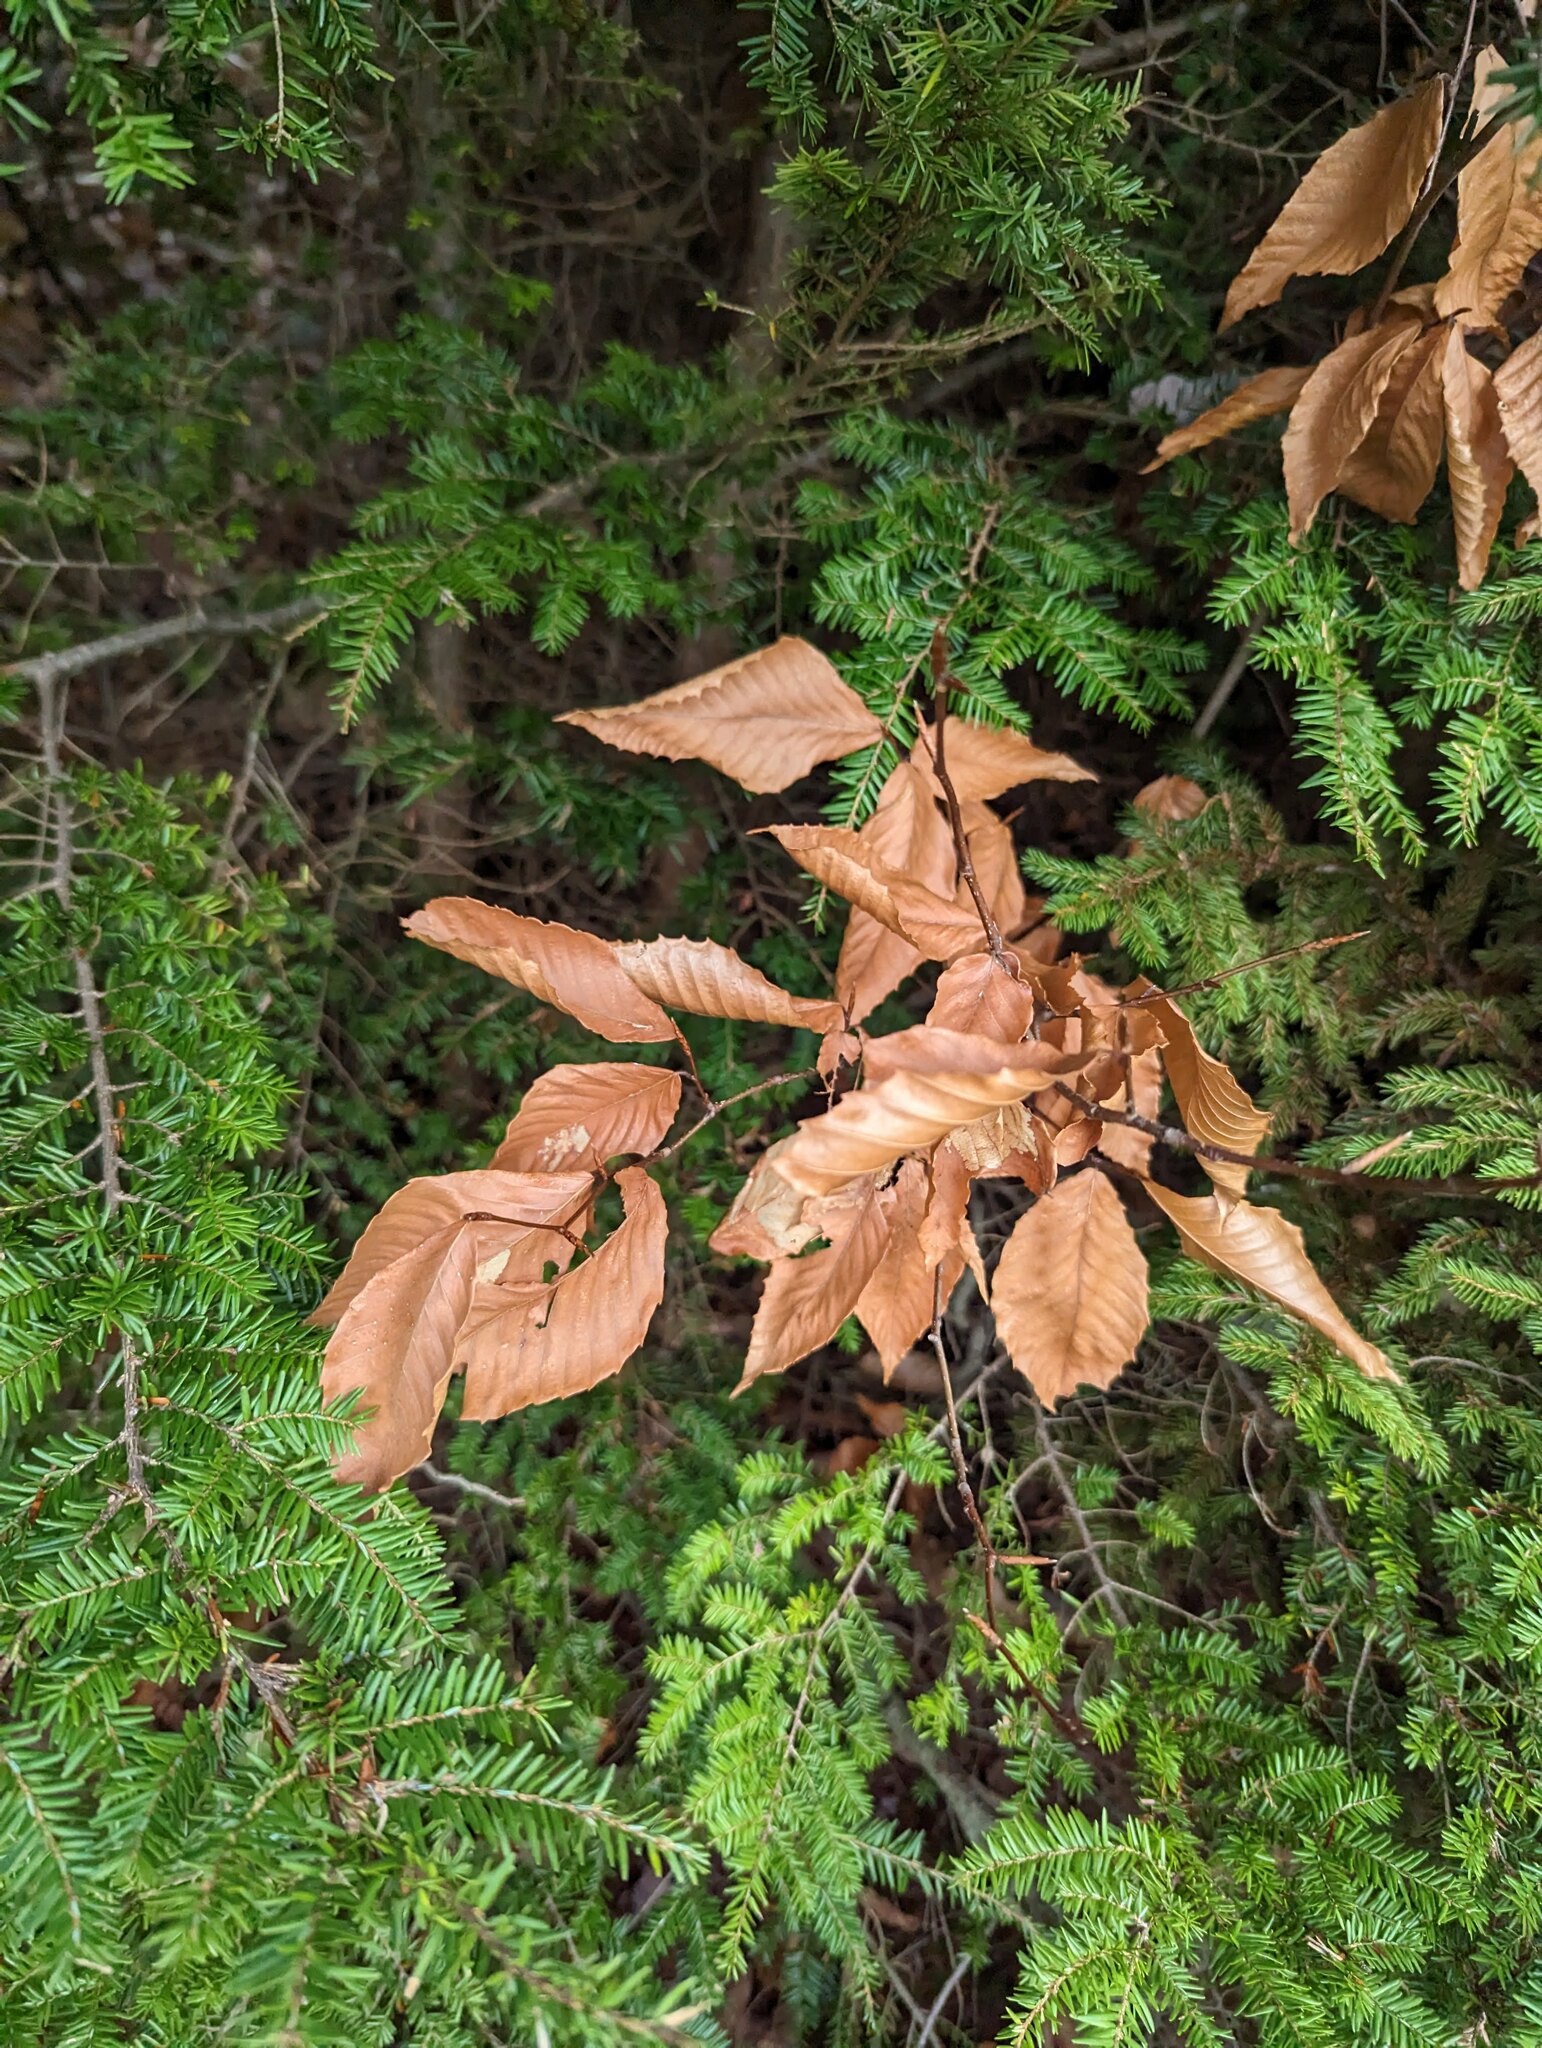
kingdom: Plantae
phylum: Tracheophyta
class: Magnoliopsida
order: Fagales
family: Fagaceae
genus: Fagus
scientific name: Fagus grandifolia
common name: American beech
